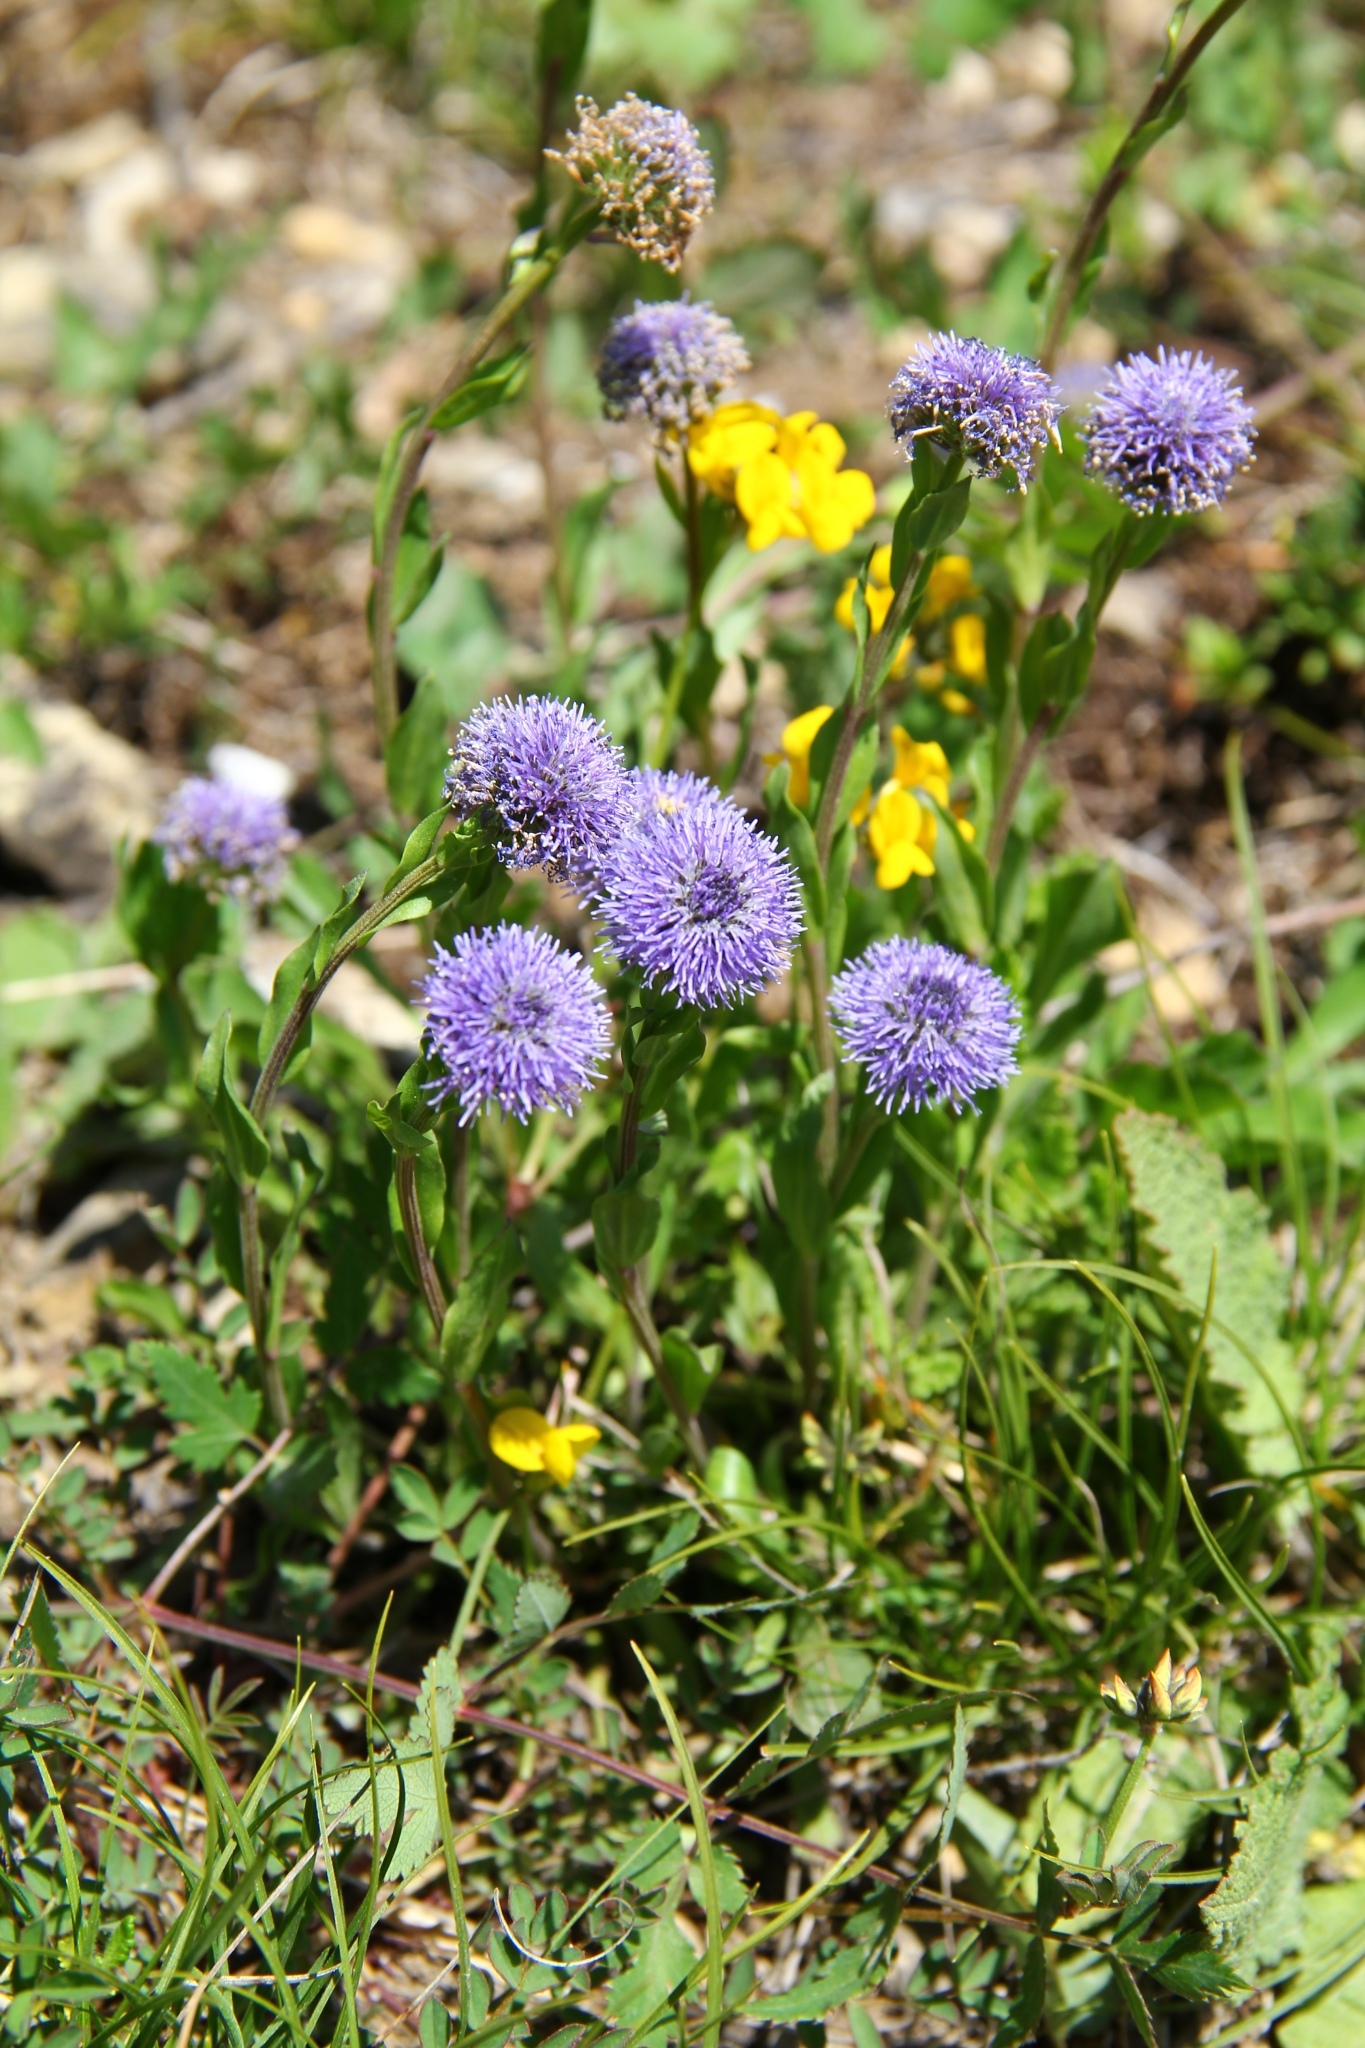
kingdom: Plantae
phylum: Tracheophyta
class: Magnoliopsida
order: Lamiales
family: Plantaginaceae
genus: Globularia
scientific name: Globularia bisnagarica
